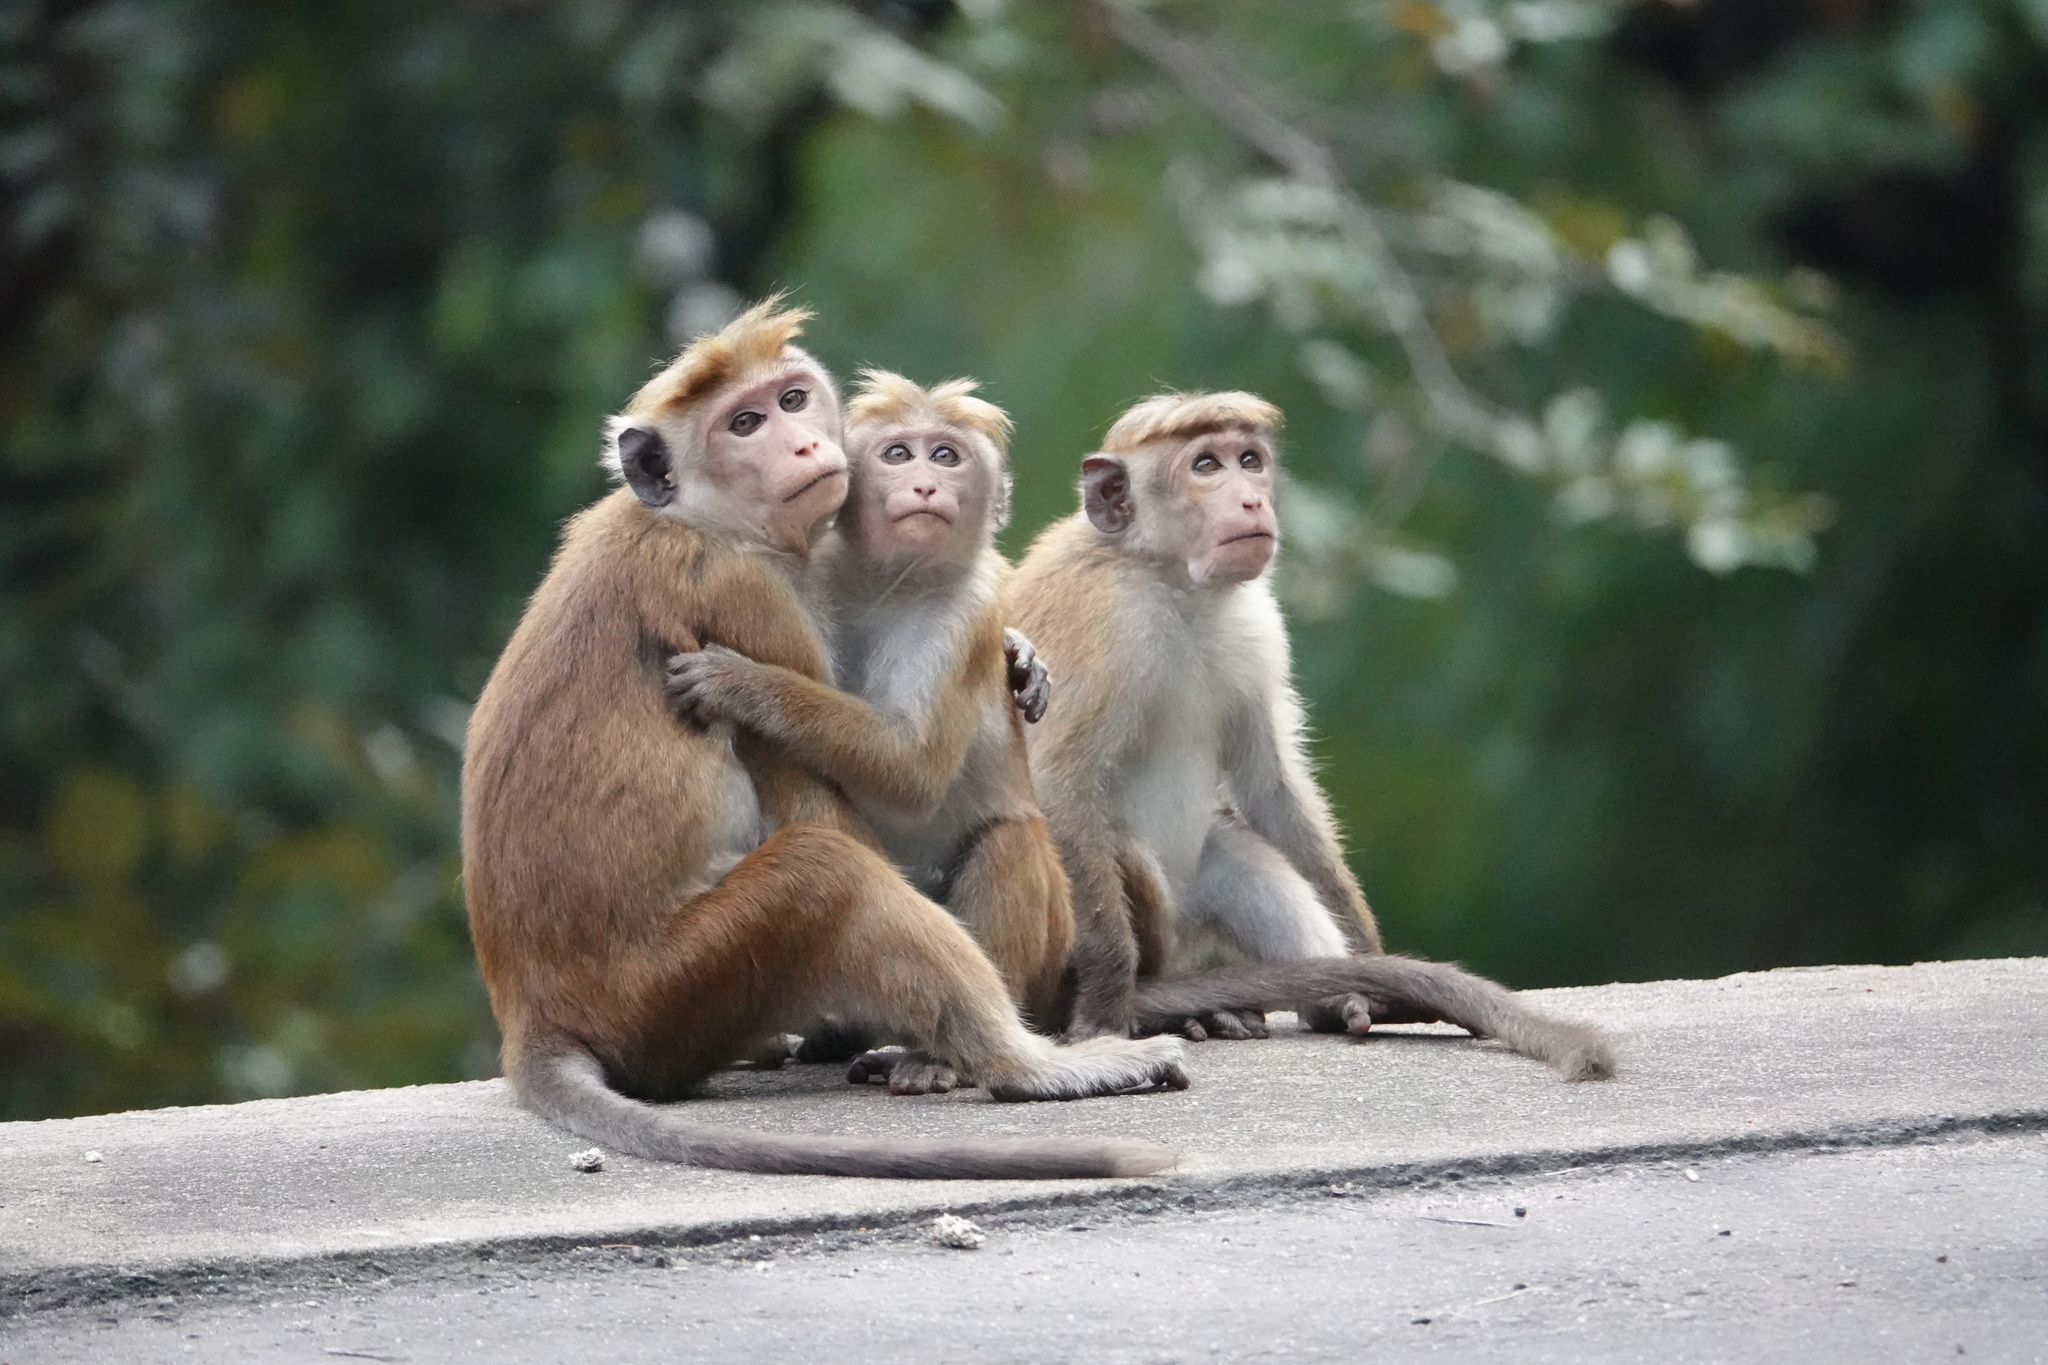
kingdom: Animalia
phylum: Chordata
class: Mammalia
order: Primates
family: Cercopithecidae
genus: Macaca
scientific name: Macaca sinica
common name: Toque macaque
